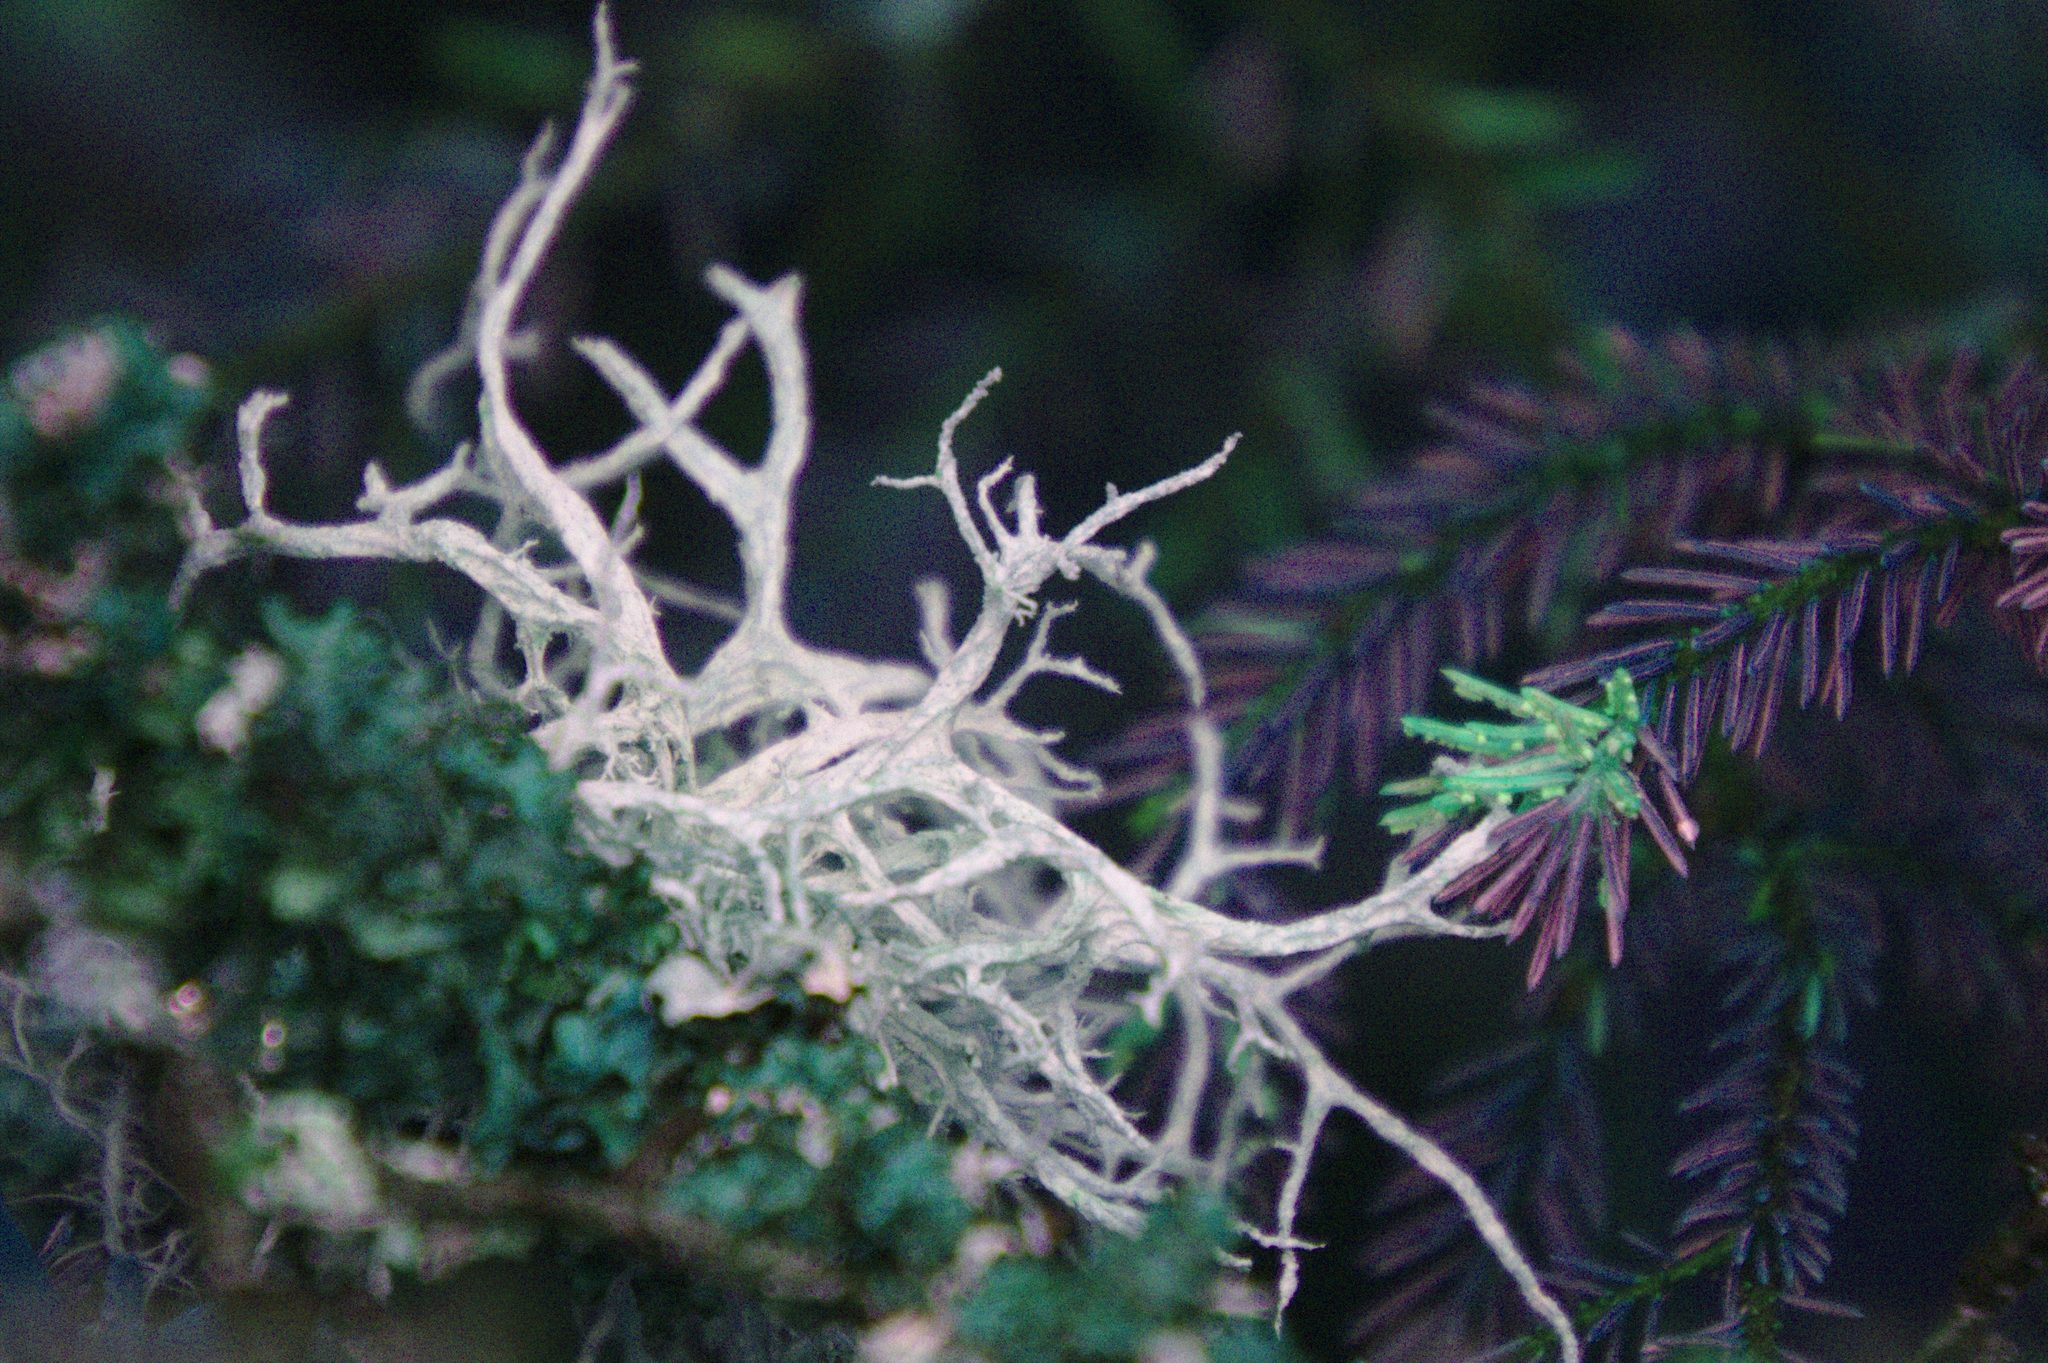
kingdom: Fungi
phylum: Ascomycota
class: Lecanoromycetes
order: Lecanorales
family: Parmeliaceae
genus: Evernia
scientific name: Evernia mesomorpha
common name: Boreal oak moss lichen
